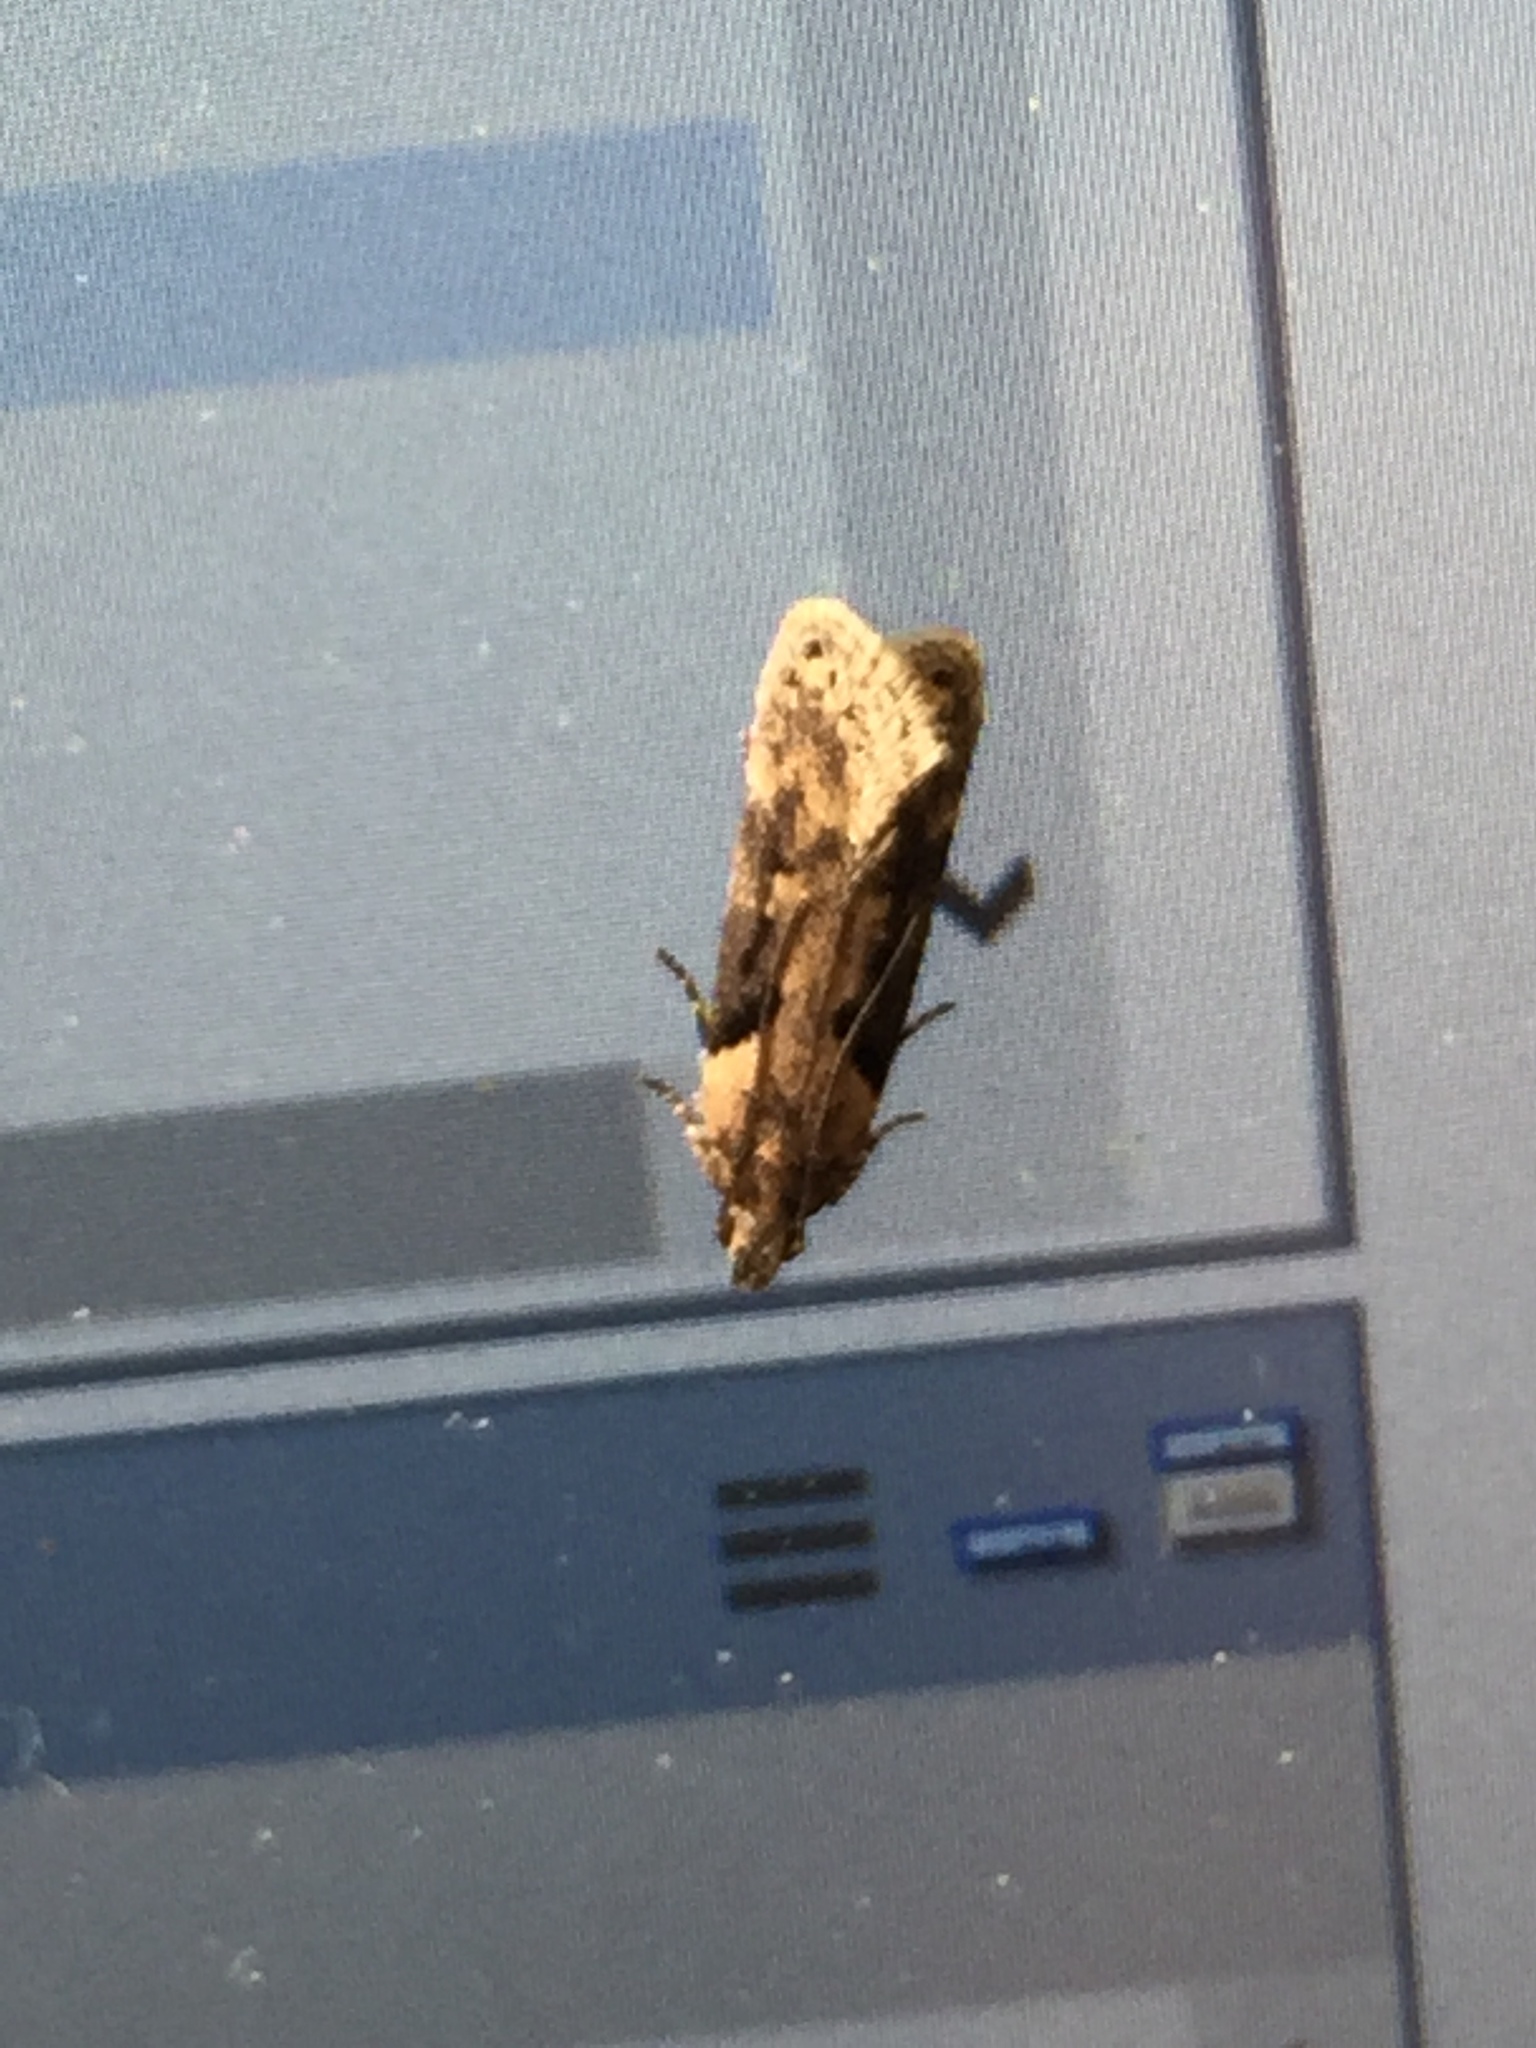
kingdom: Animalia
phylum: Arthropoda
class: Insecta
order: Lepidoptera
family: Gelechiidae
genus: Chionodes
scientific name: Chionodes mediofuscella
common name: Black-smudged chionodes moth
